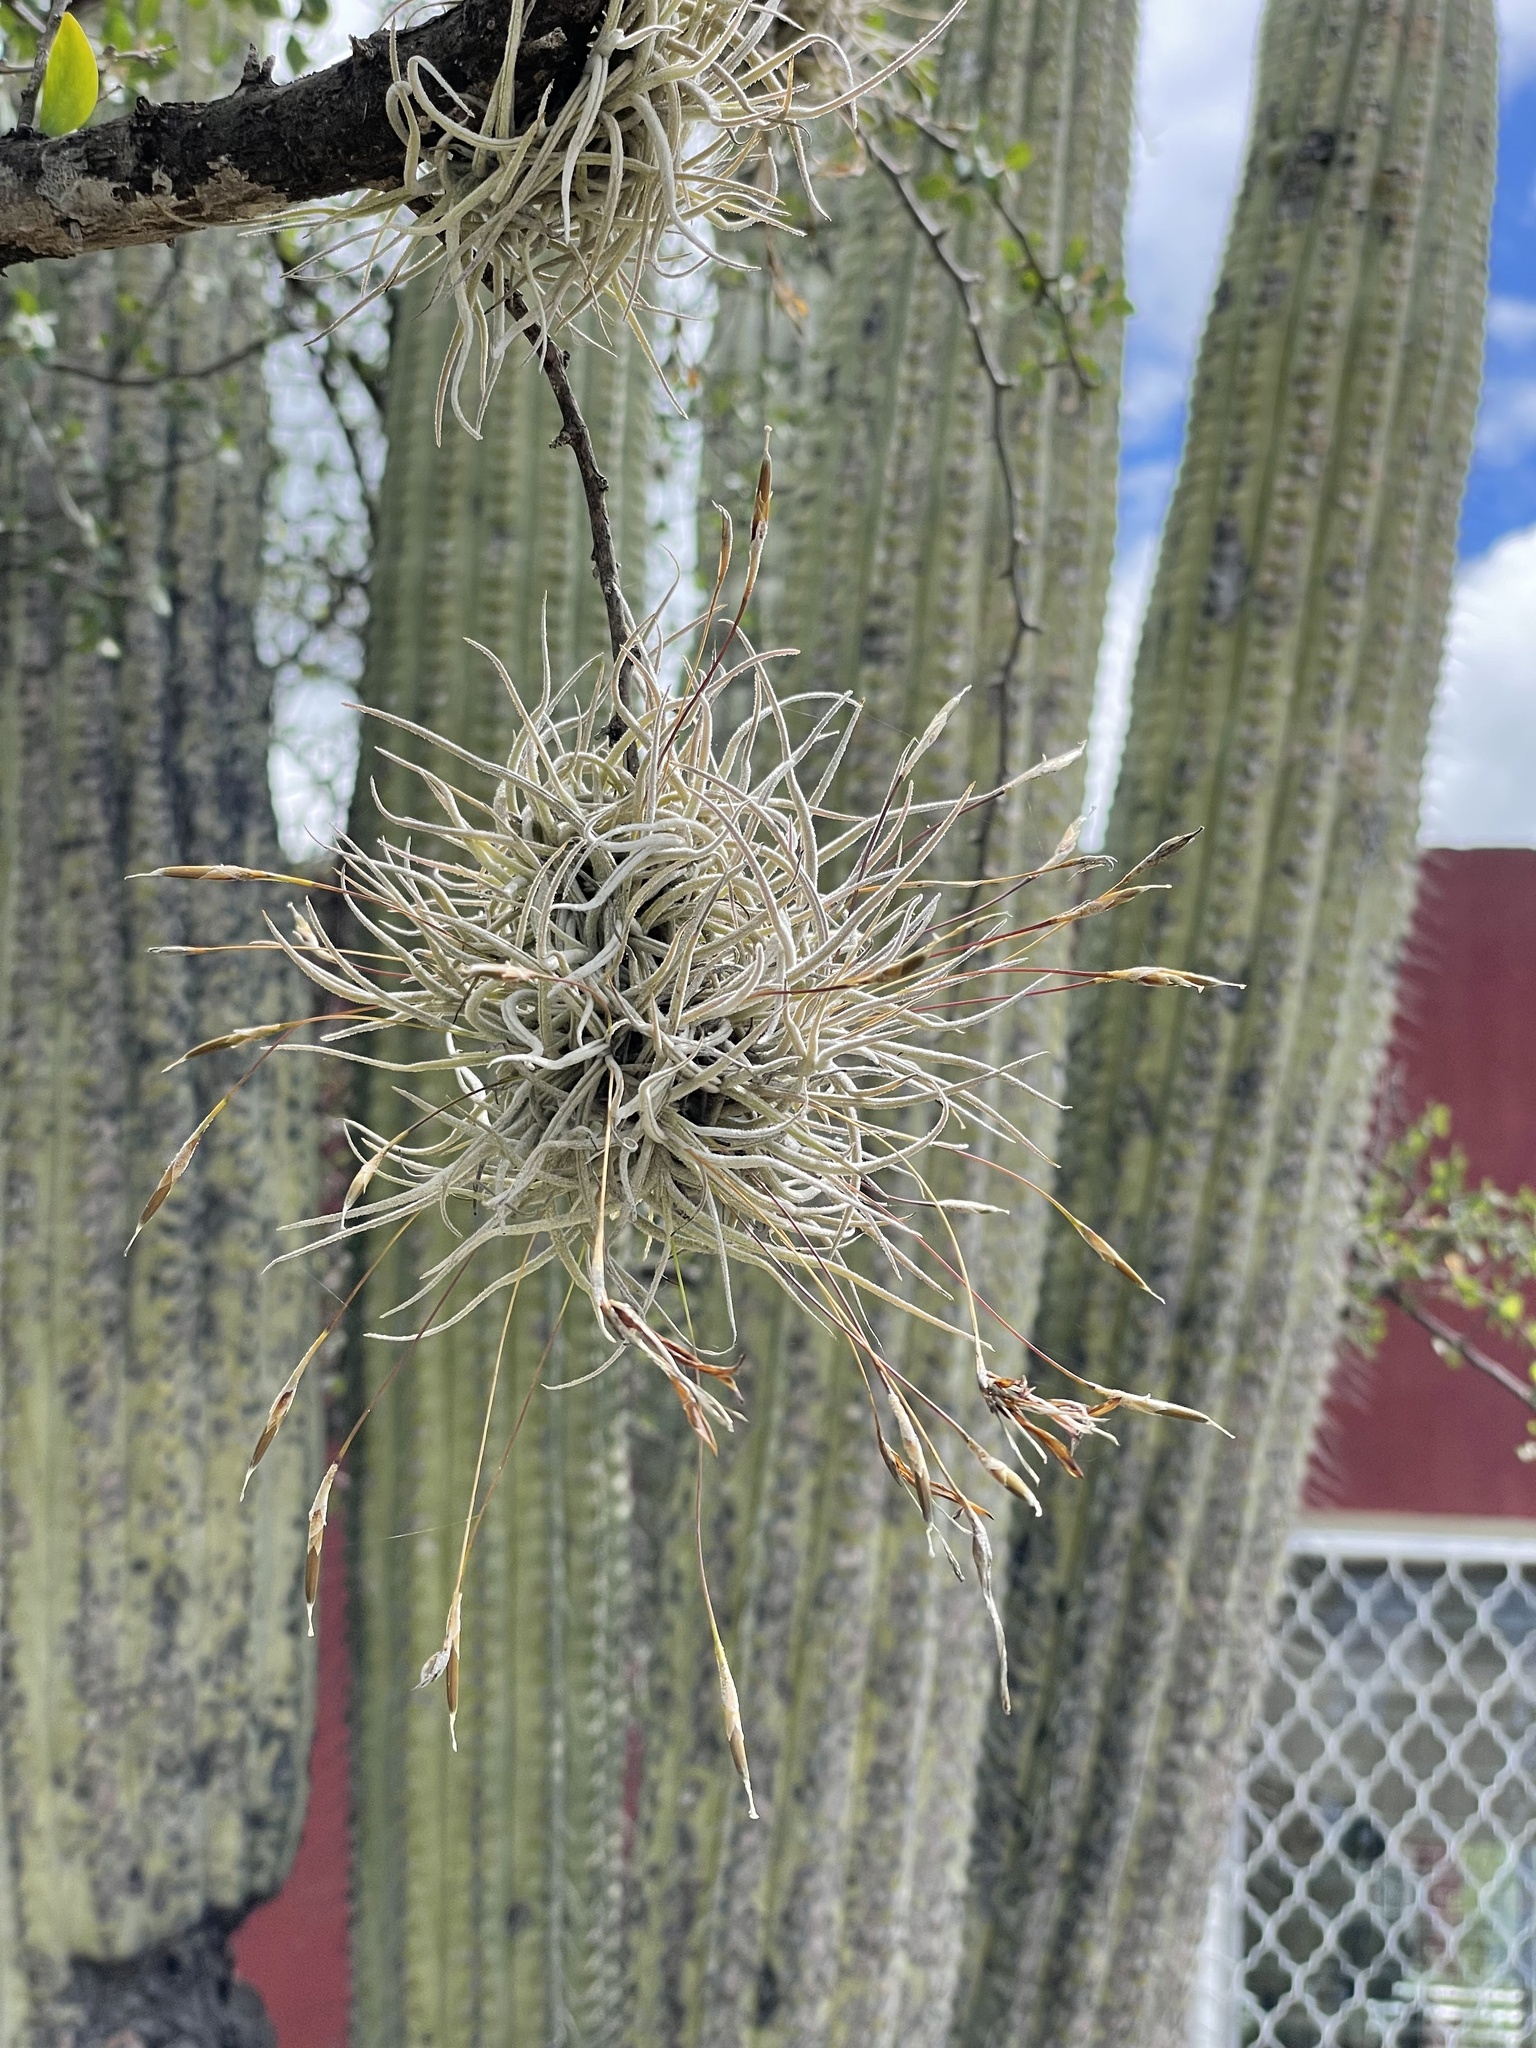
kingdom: Plantae
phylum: Tracheophyta
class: Liliopsida
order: Poales
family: Bromeliaceae
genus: Tillandsia
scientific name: Tillandsia recurvata
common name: Small ballmoss
